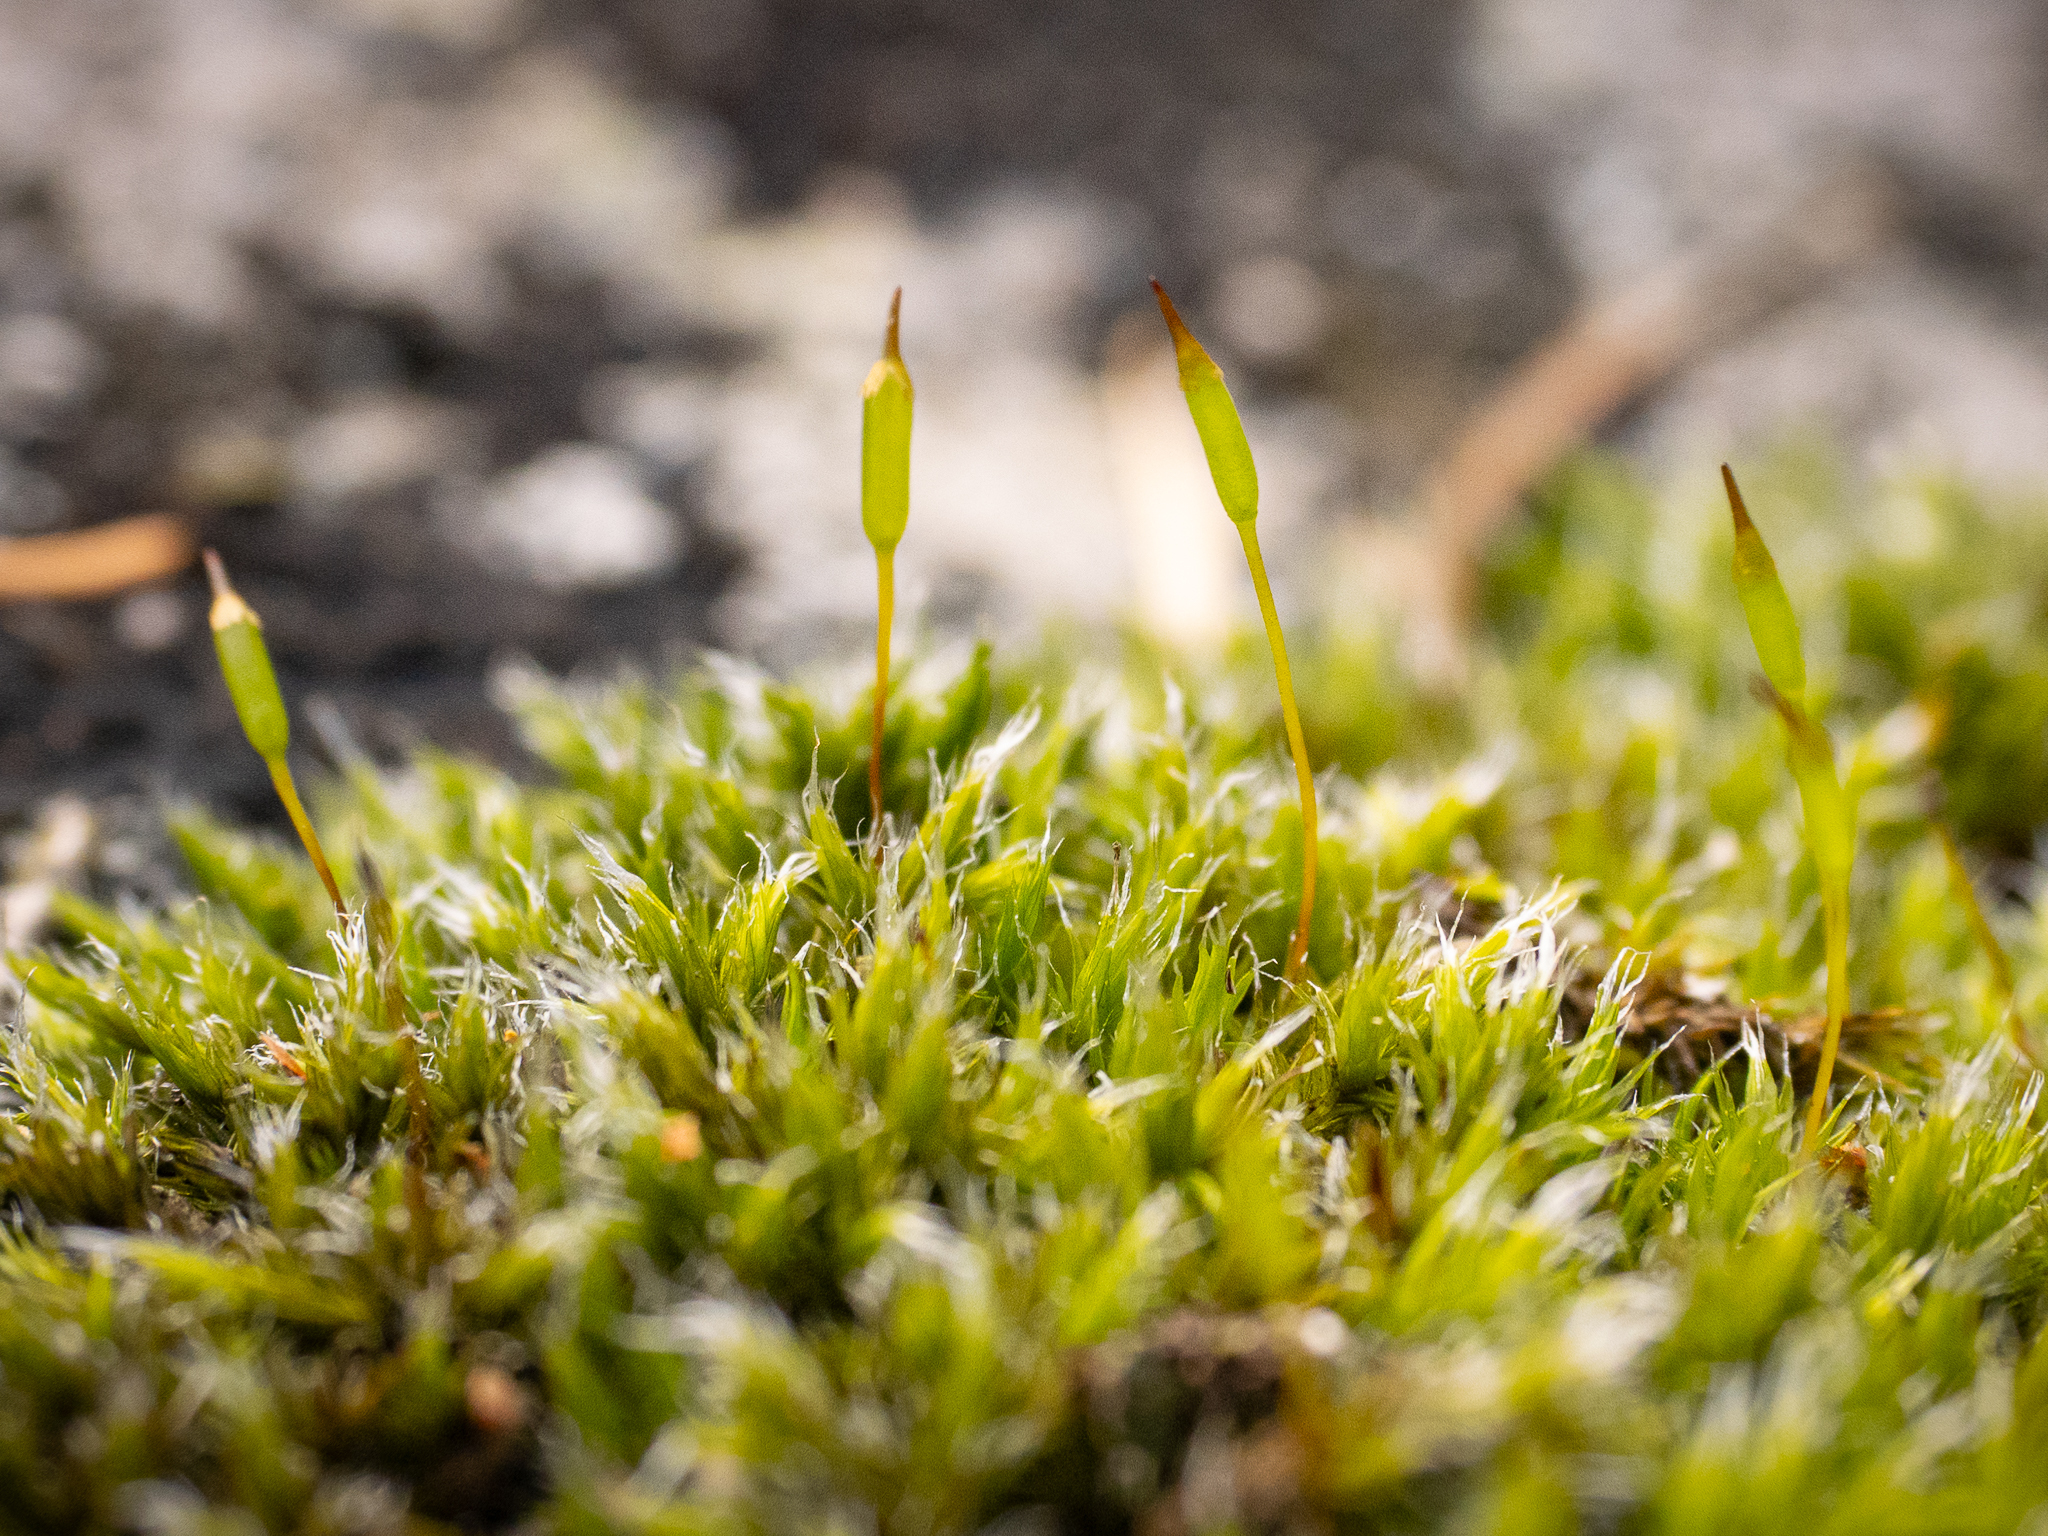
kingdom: Plantae
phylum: Bryophyta
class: Bryopsida
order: Grimmiales
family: Grimmiaceae
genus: Bucklandiella
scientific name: Bucklandiella heterosticha
